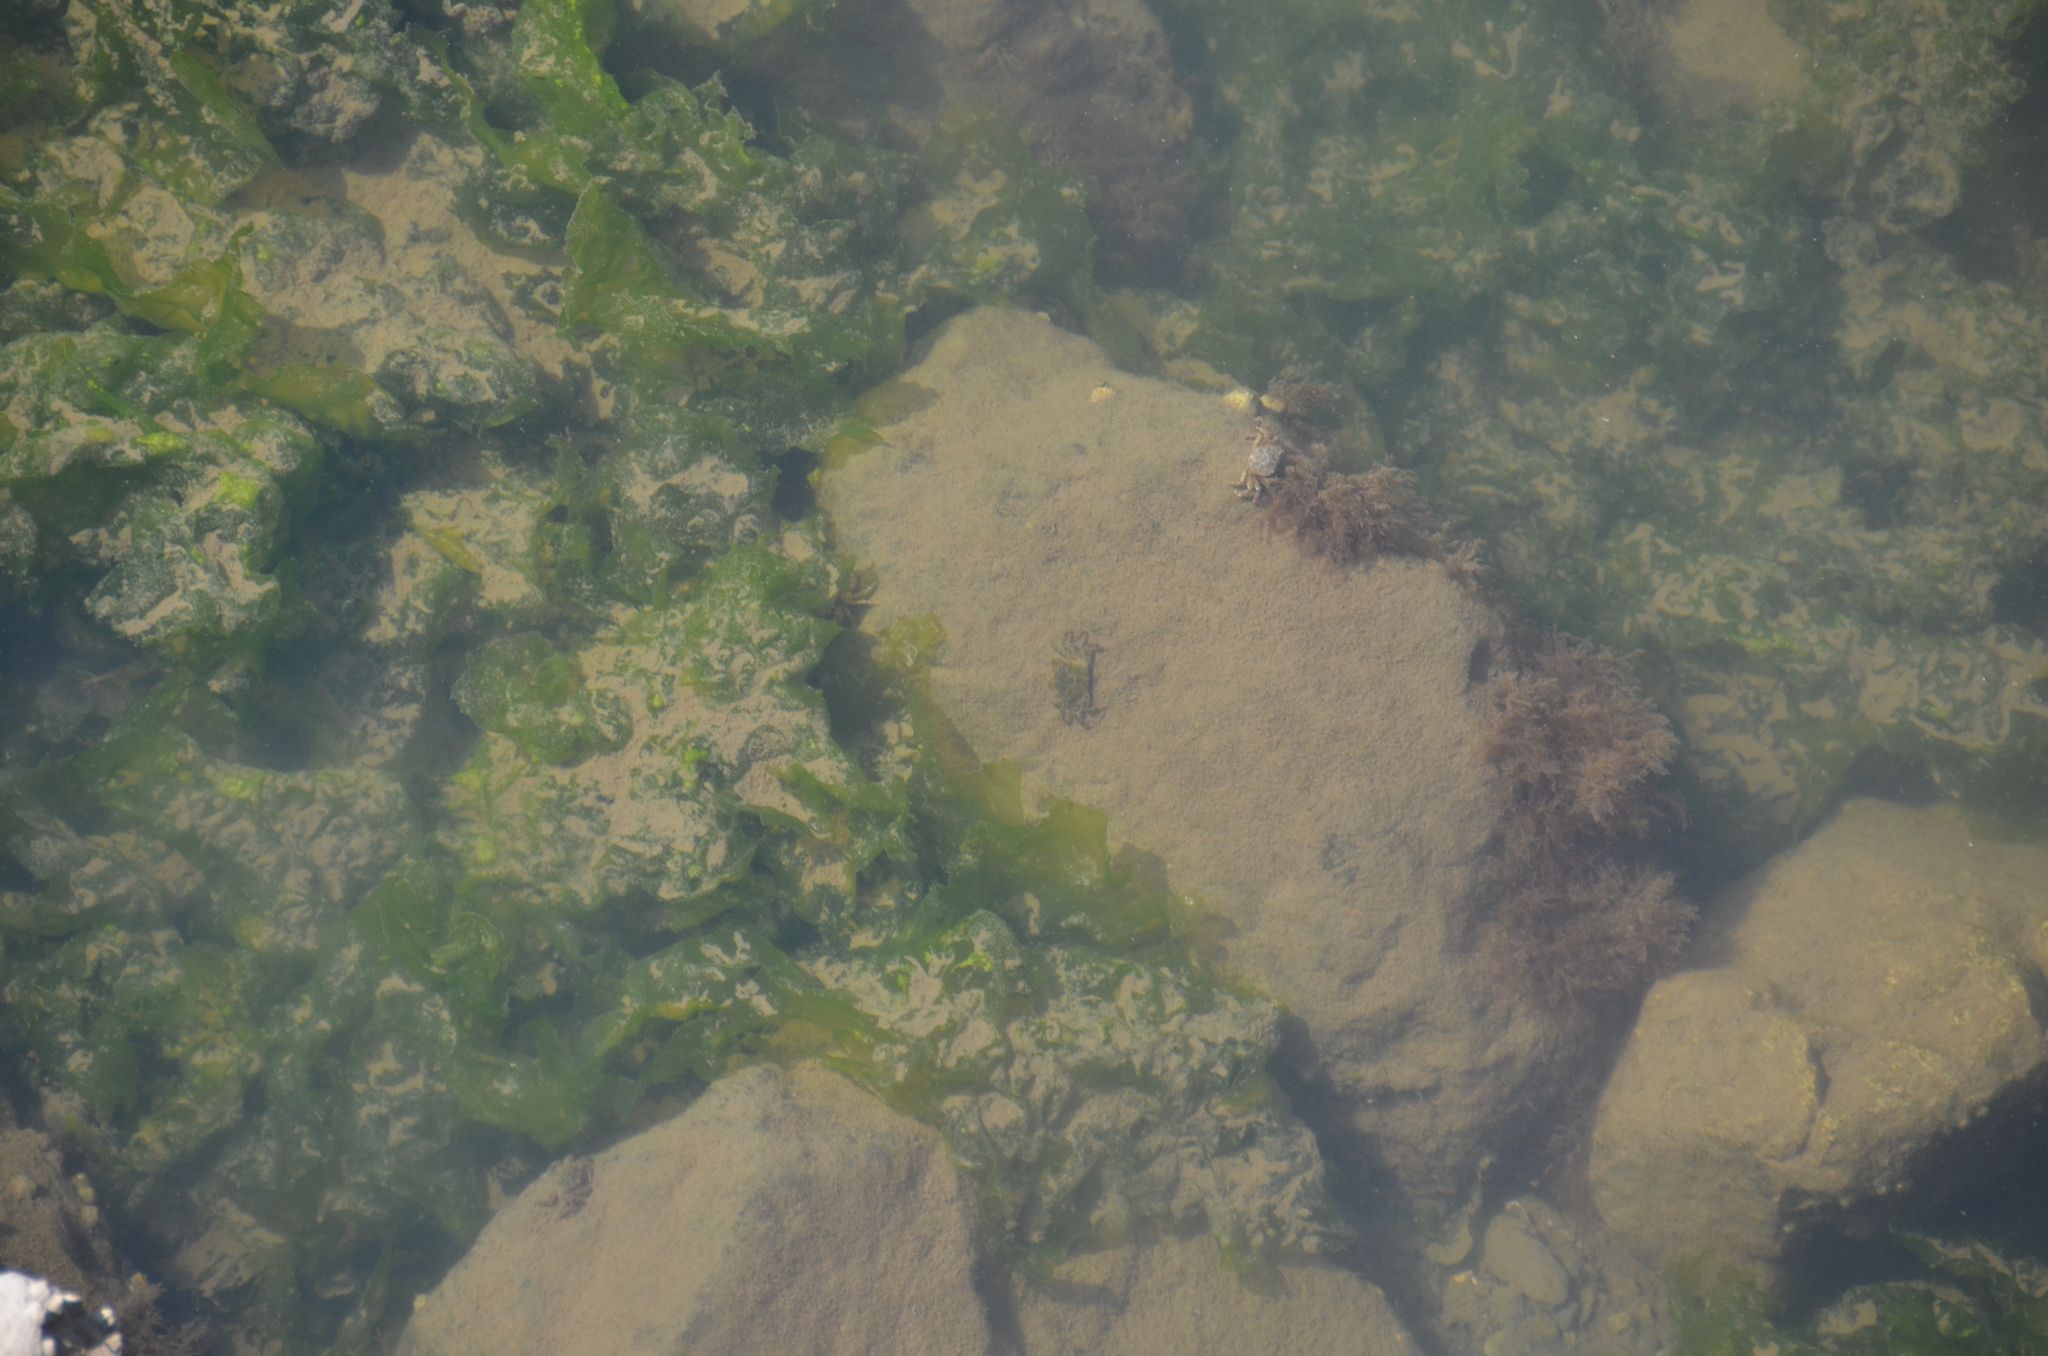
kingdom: Animalia
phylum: Arthropoda
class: Malacostraca
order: Decapoda
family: Varunidae
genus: Hemigrapsus
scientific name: Hemigrapsus oregonensis
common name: Yellow shore crab
